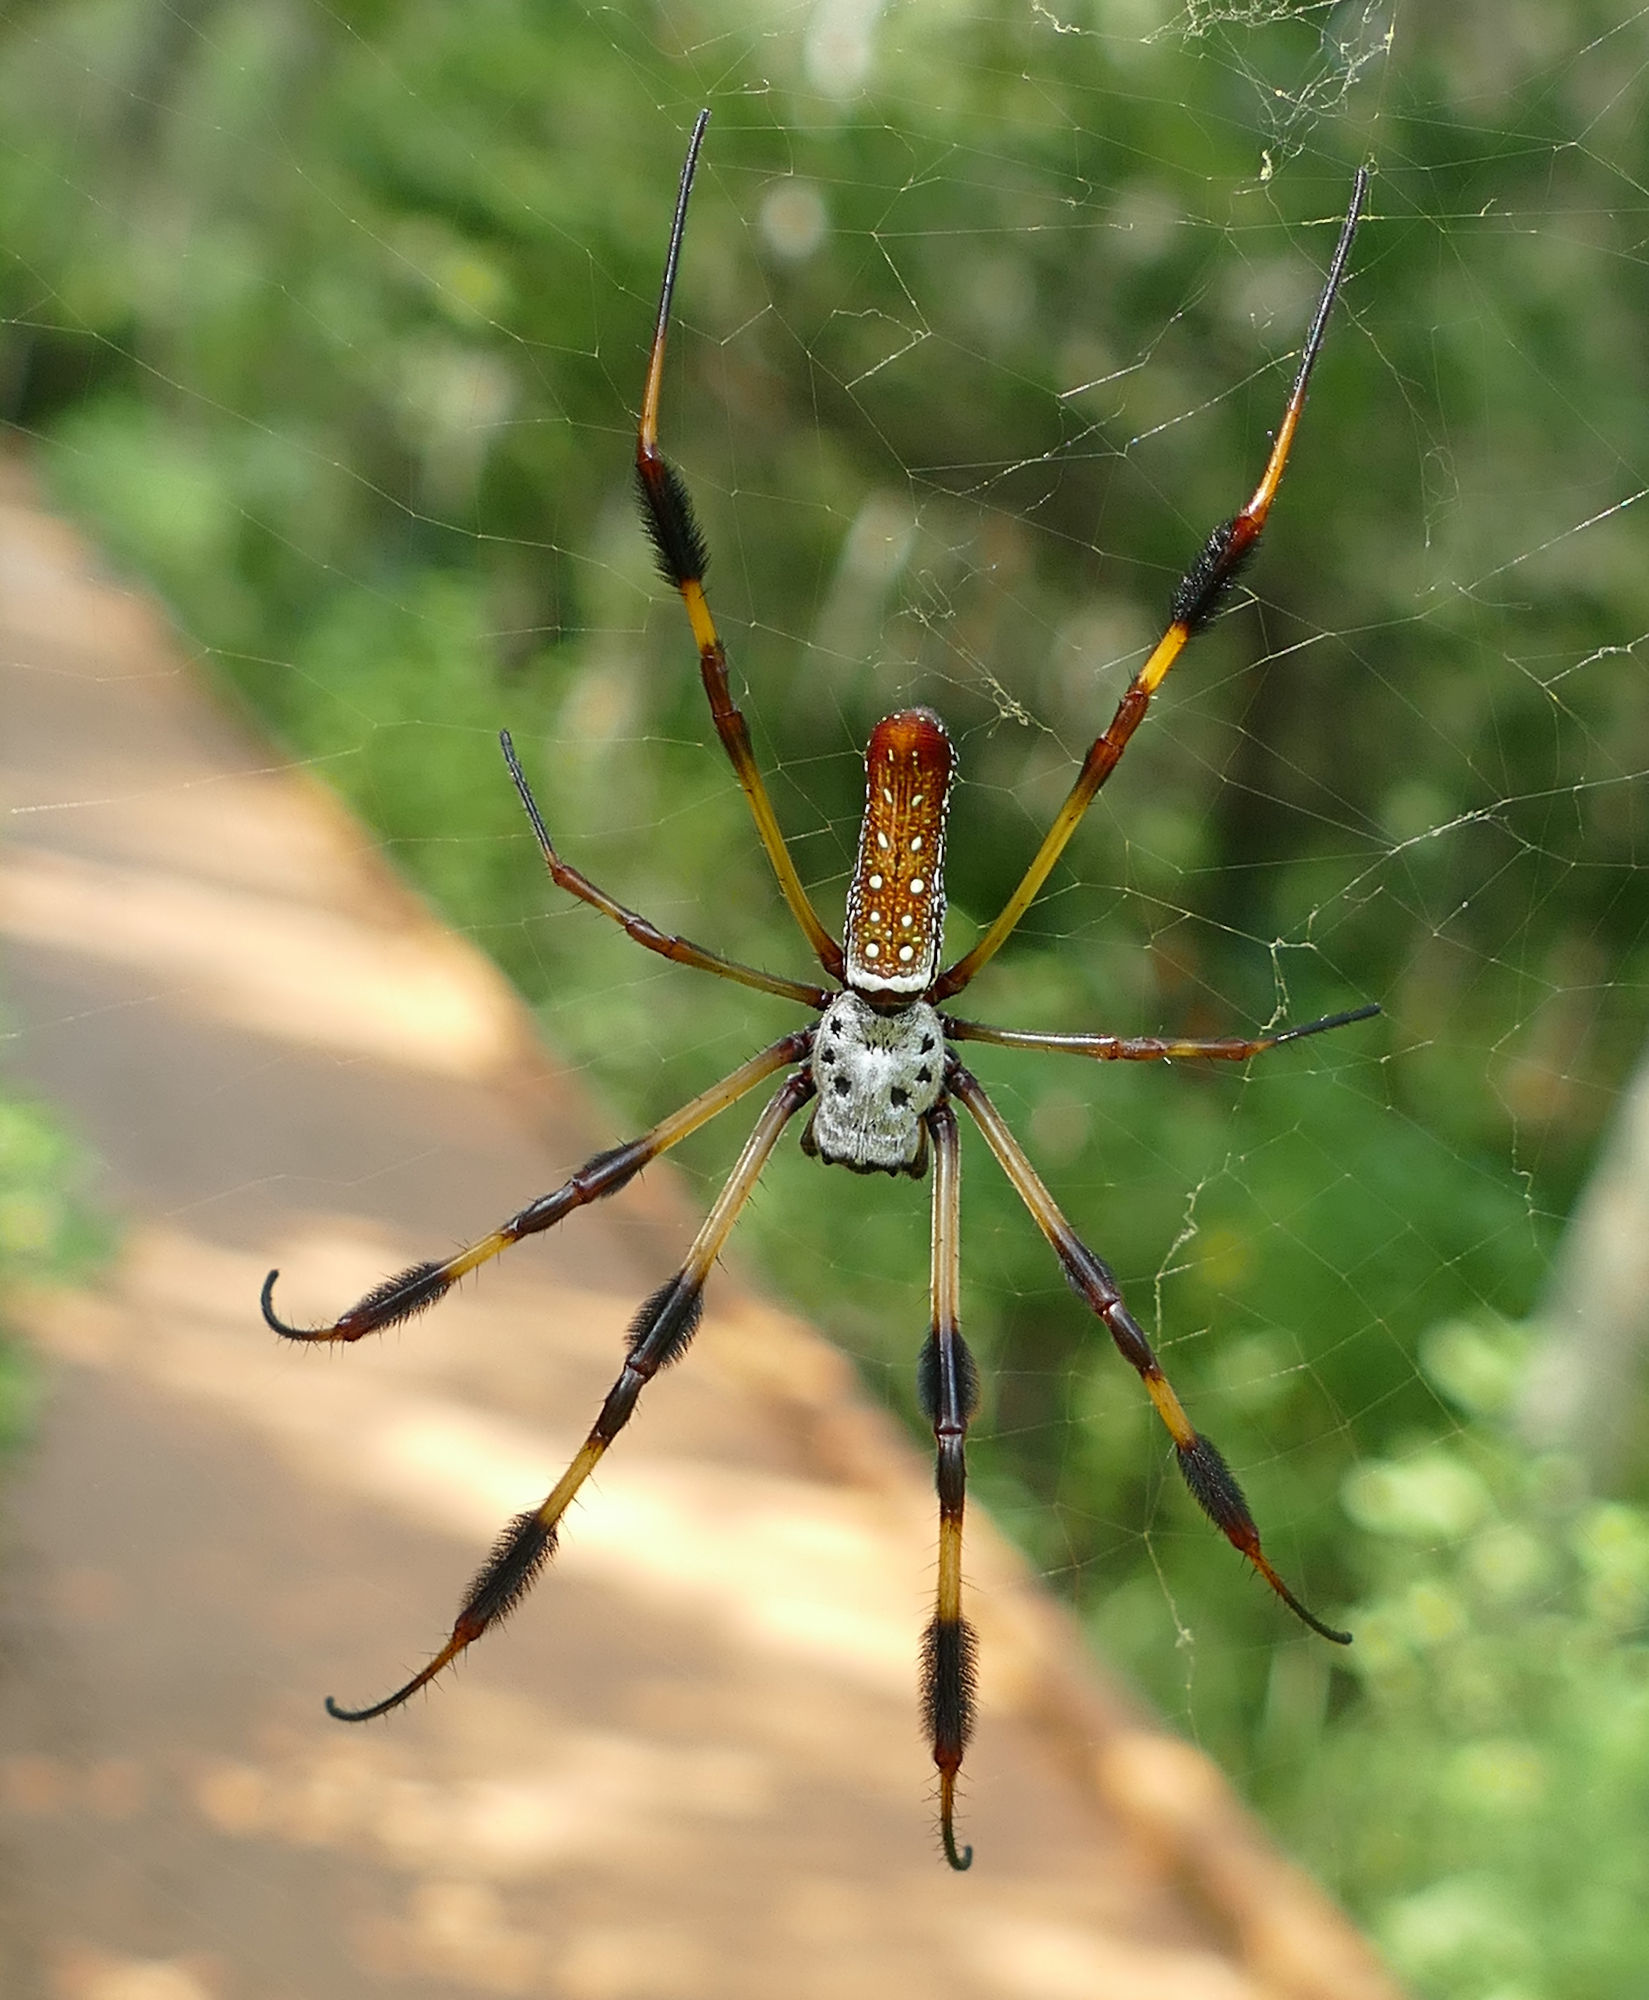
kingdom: Animalia
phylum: Arthropoda
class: Arachnida
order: Araneae
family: Araneidae
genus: Trichonephila
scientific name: Trichonephila clavipes
